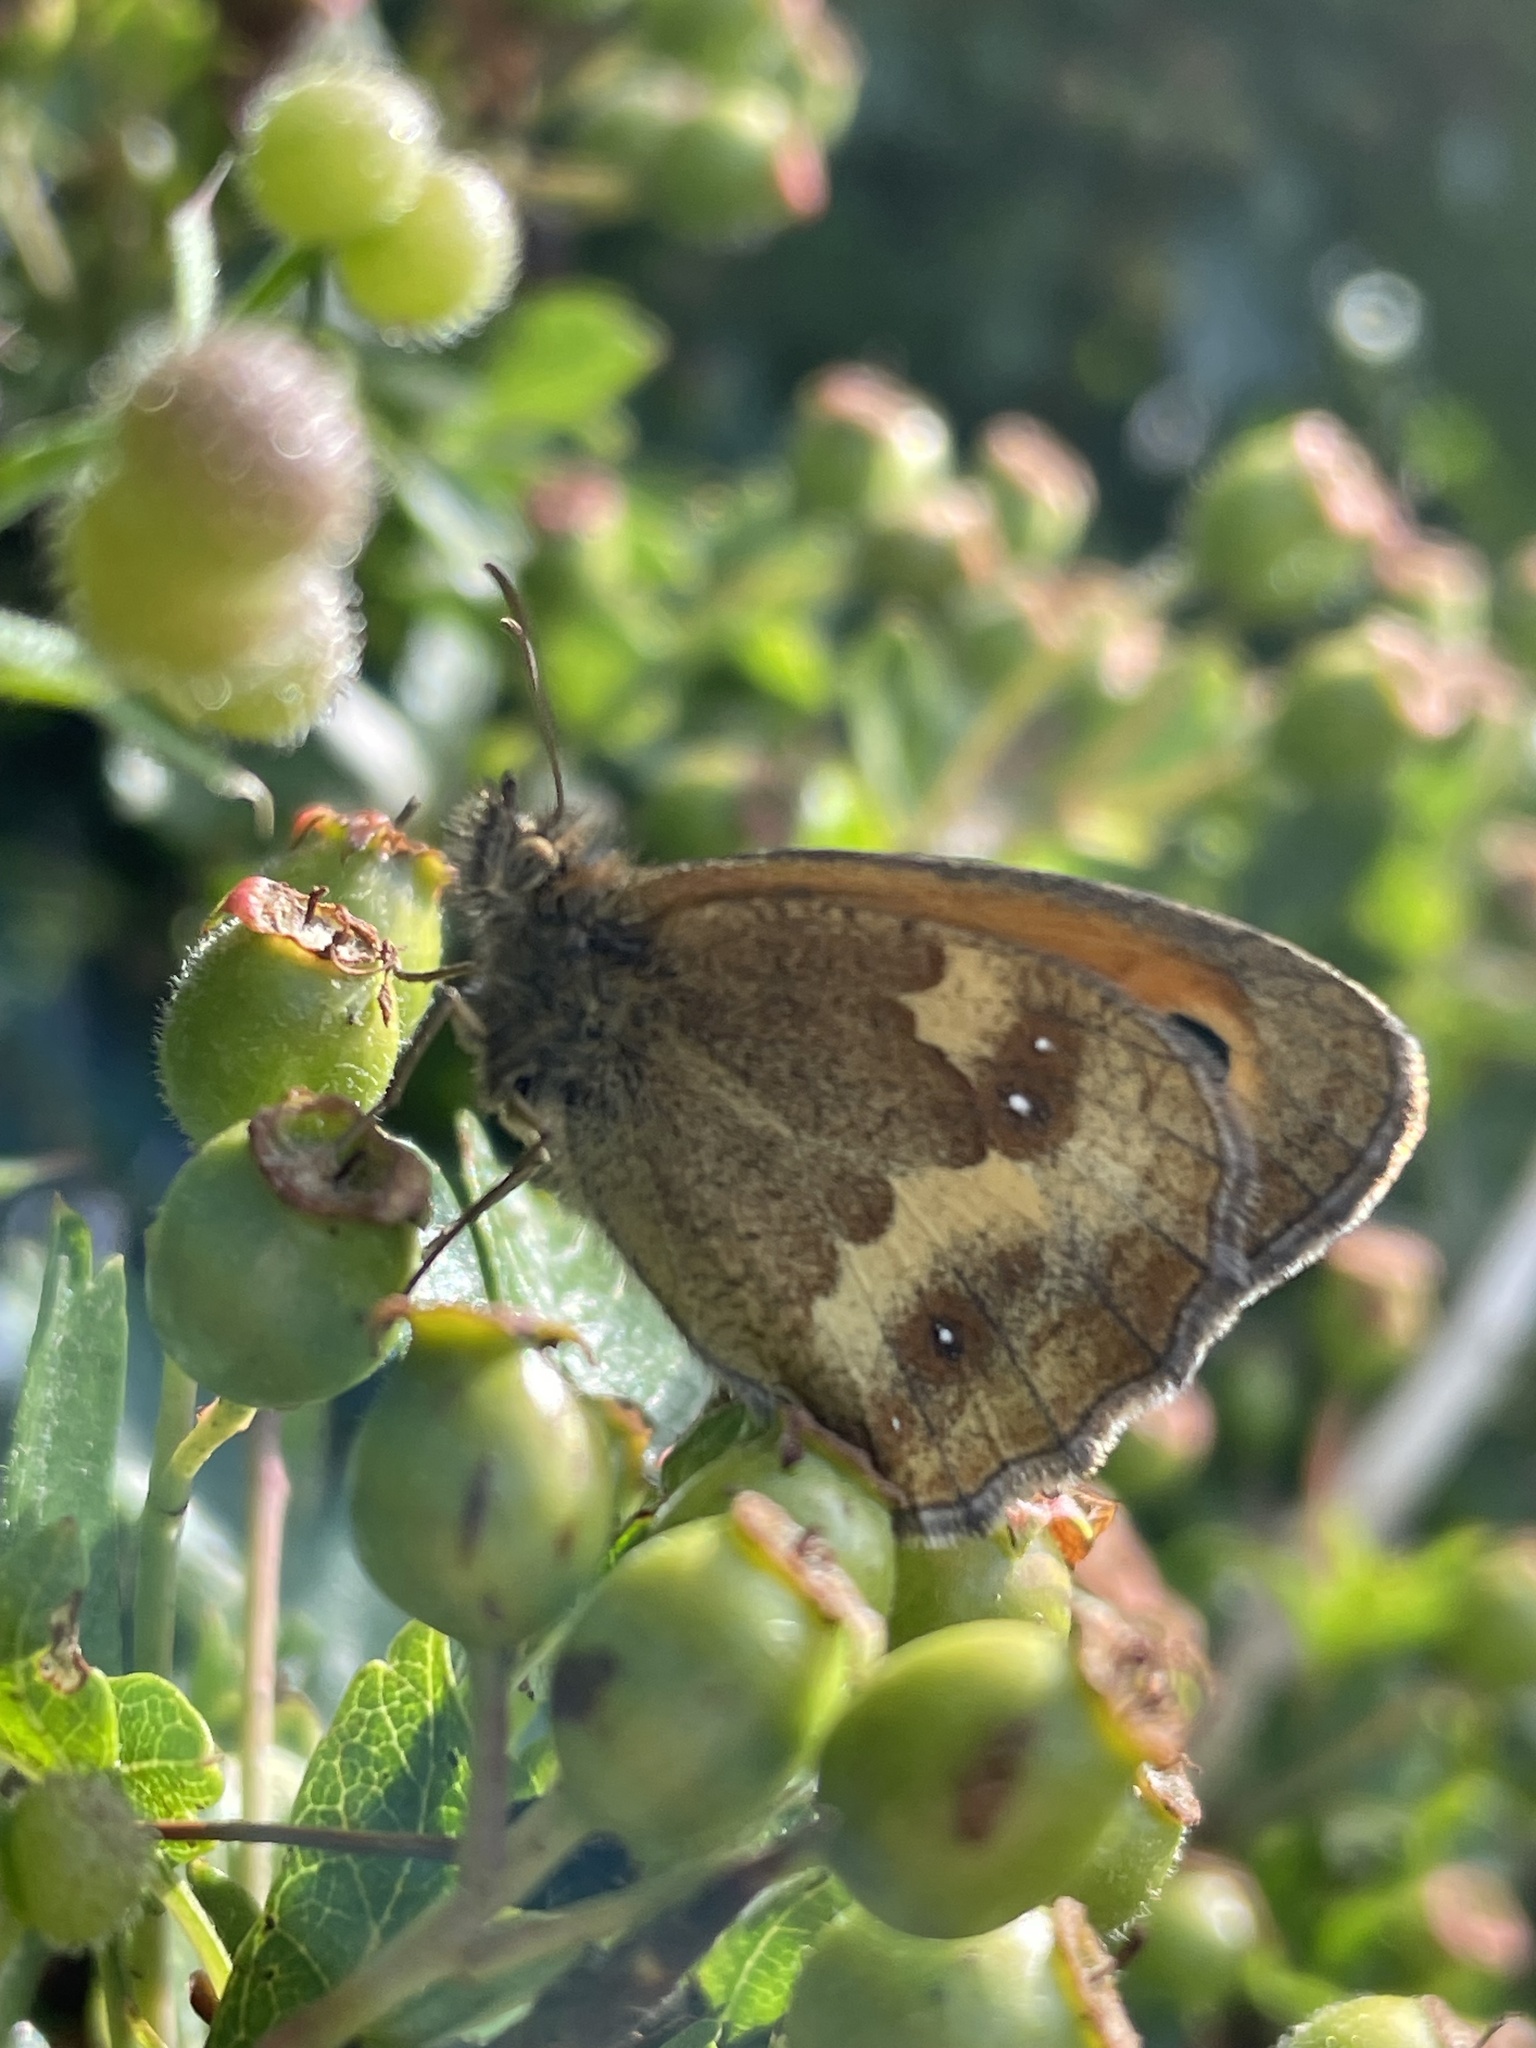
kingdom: Animalia
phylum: Arthropoda
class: Insecta
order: Lepidoptera
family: Nymphalidae
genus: Pyronia
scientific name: Pyronia tithonus
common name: Gatekeeper
